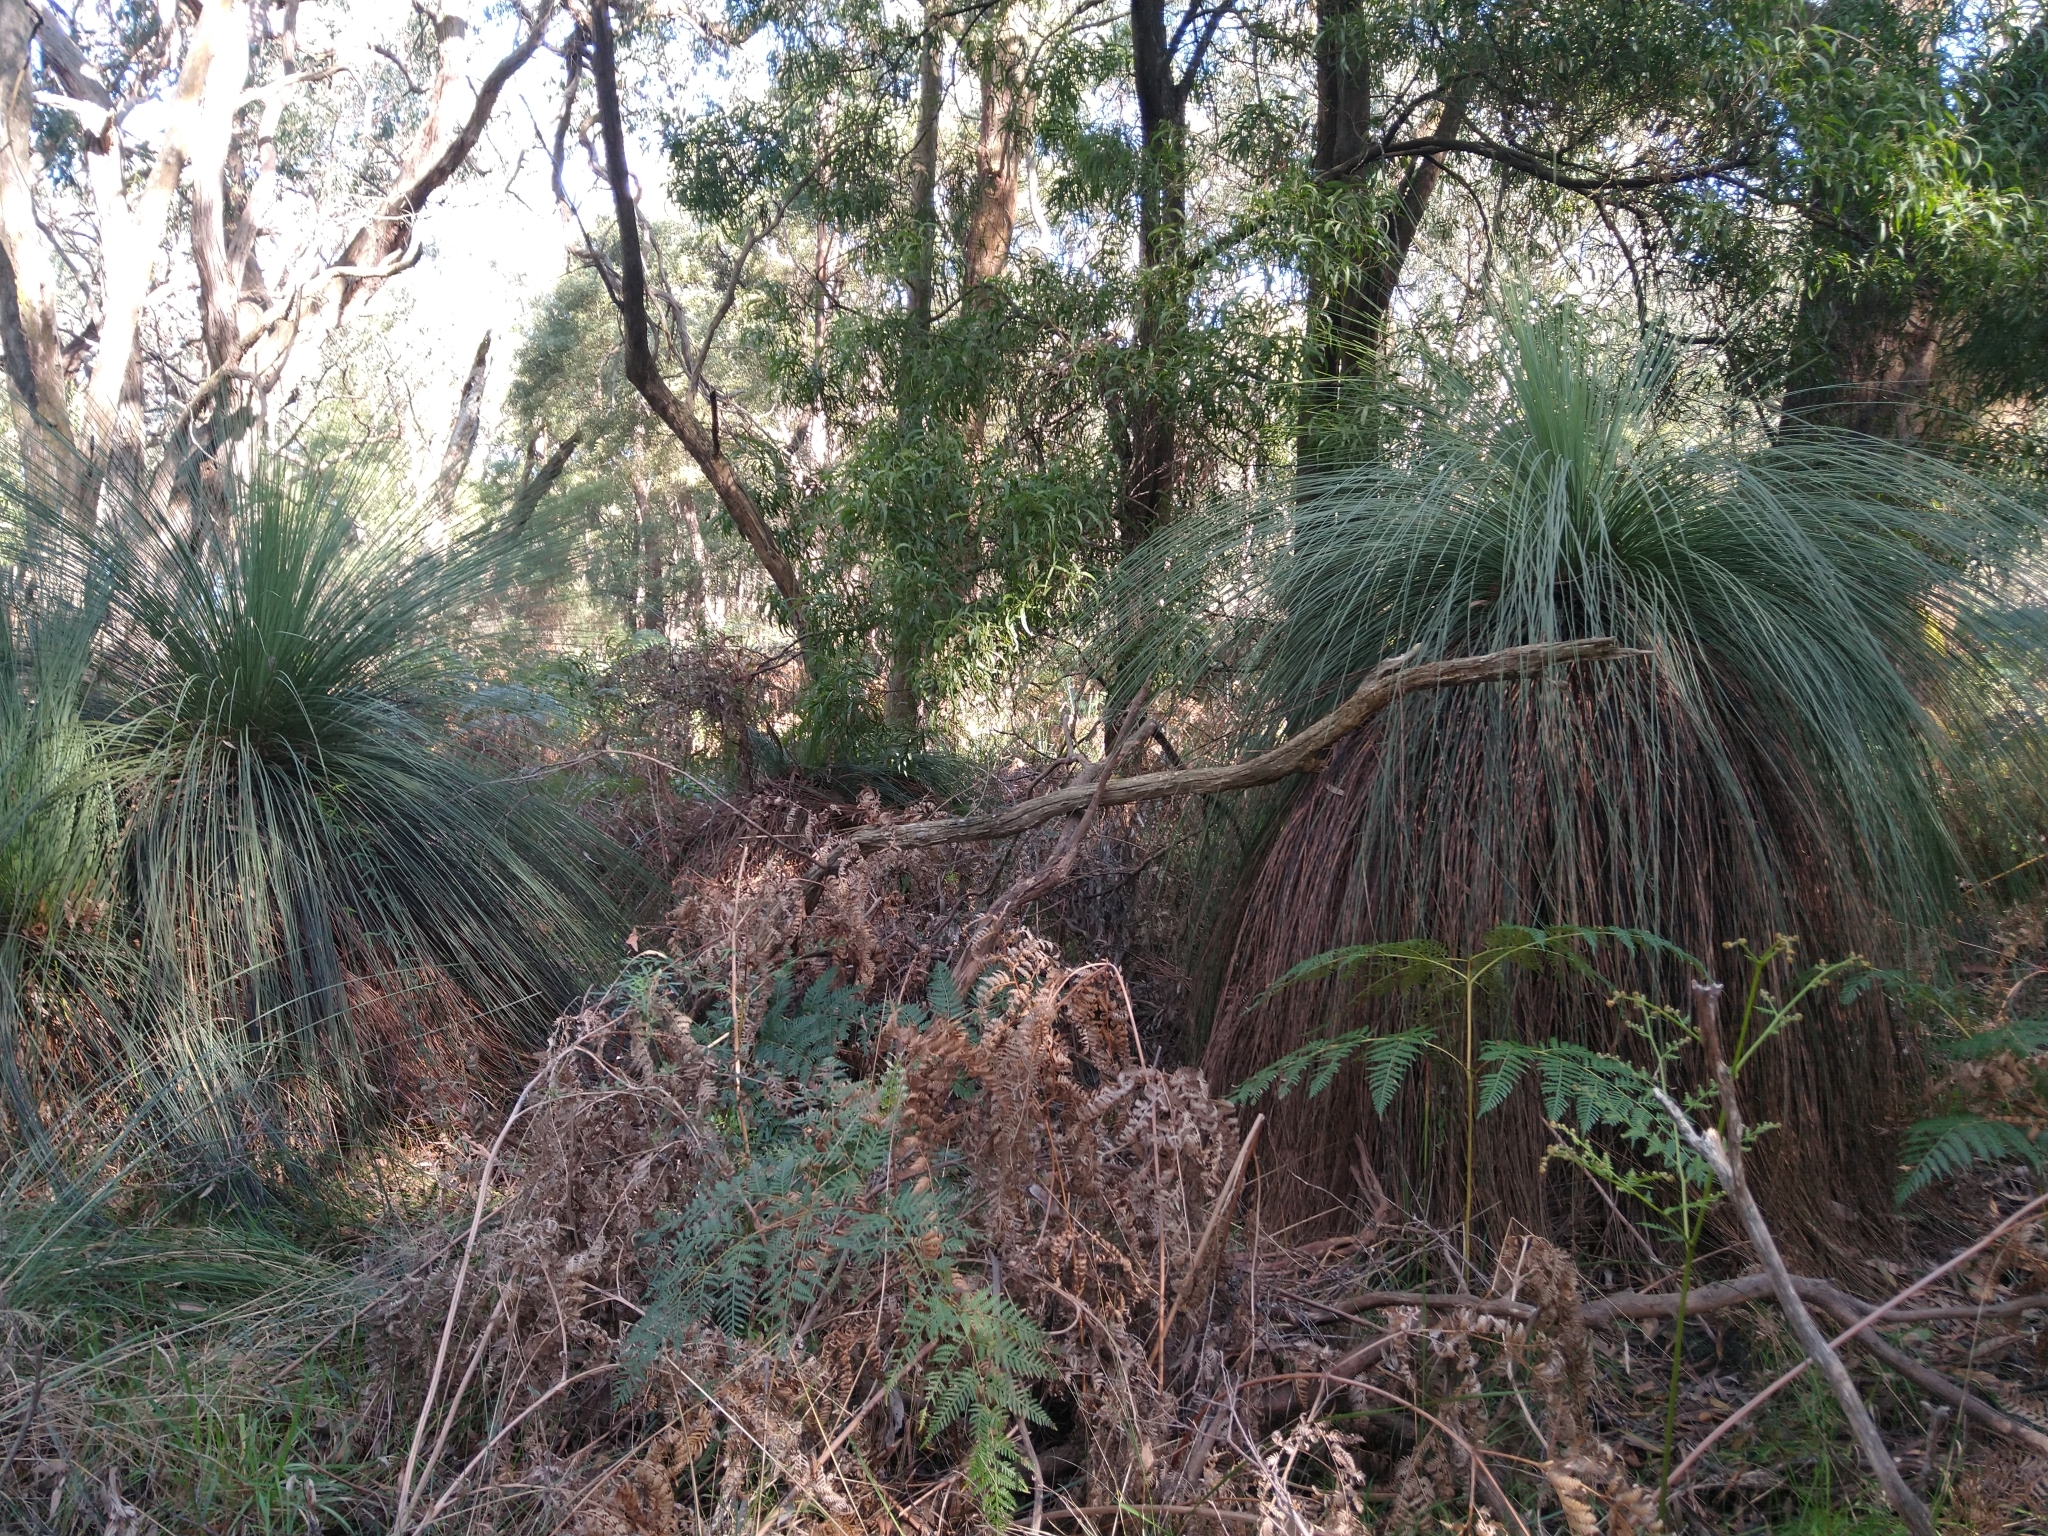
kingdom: Plantae
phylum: Tracheophyta
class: Liliopsida
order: Asparagales
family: Asphodelaceae
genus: Xanthorrhoea
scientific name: Xanthorrhoea australis
